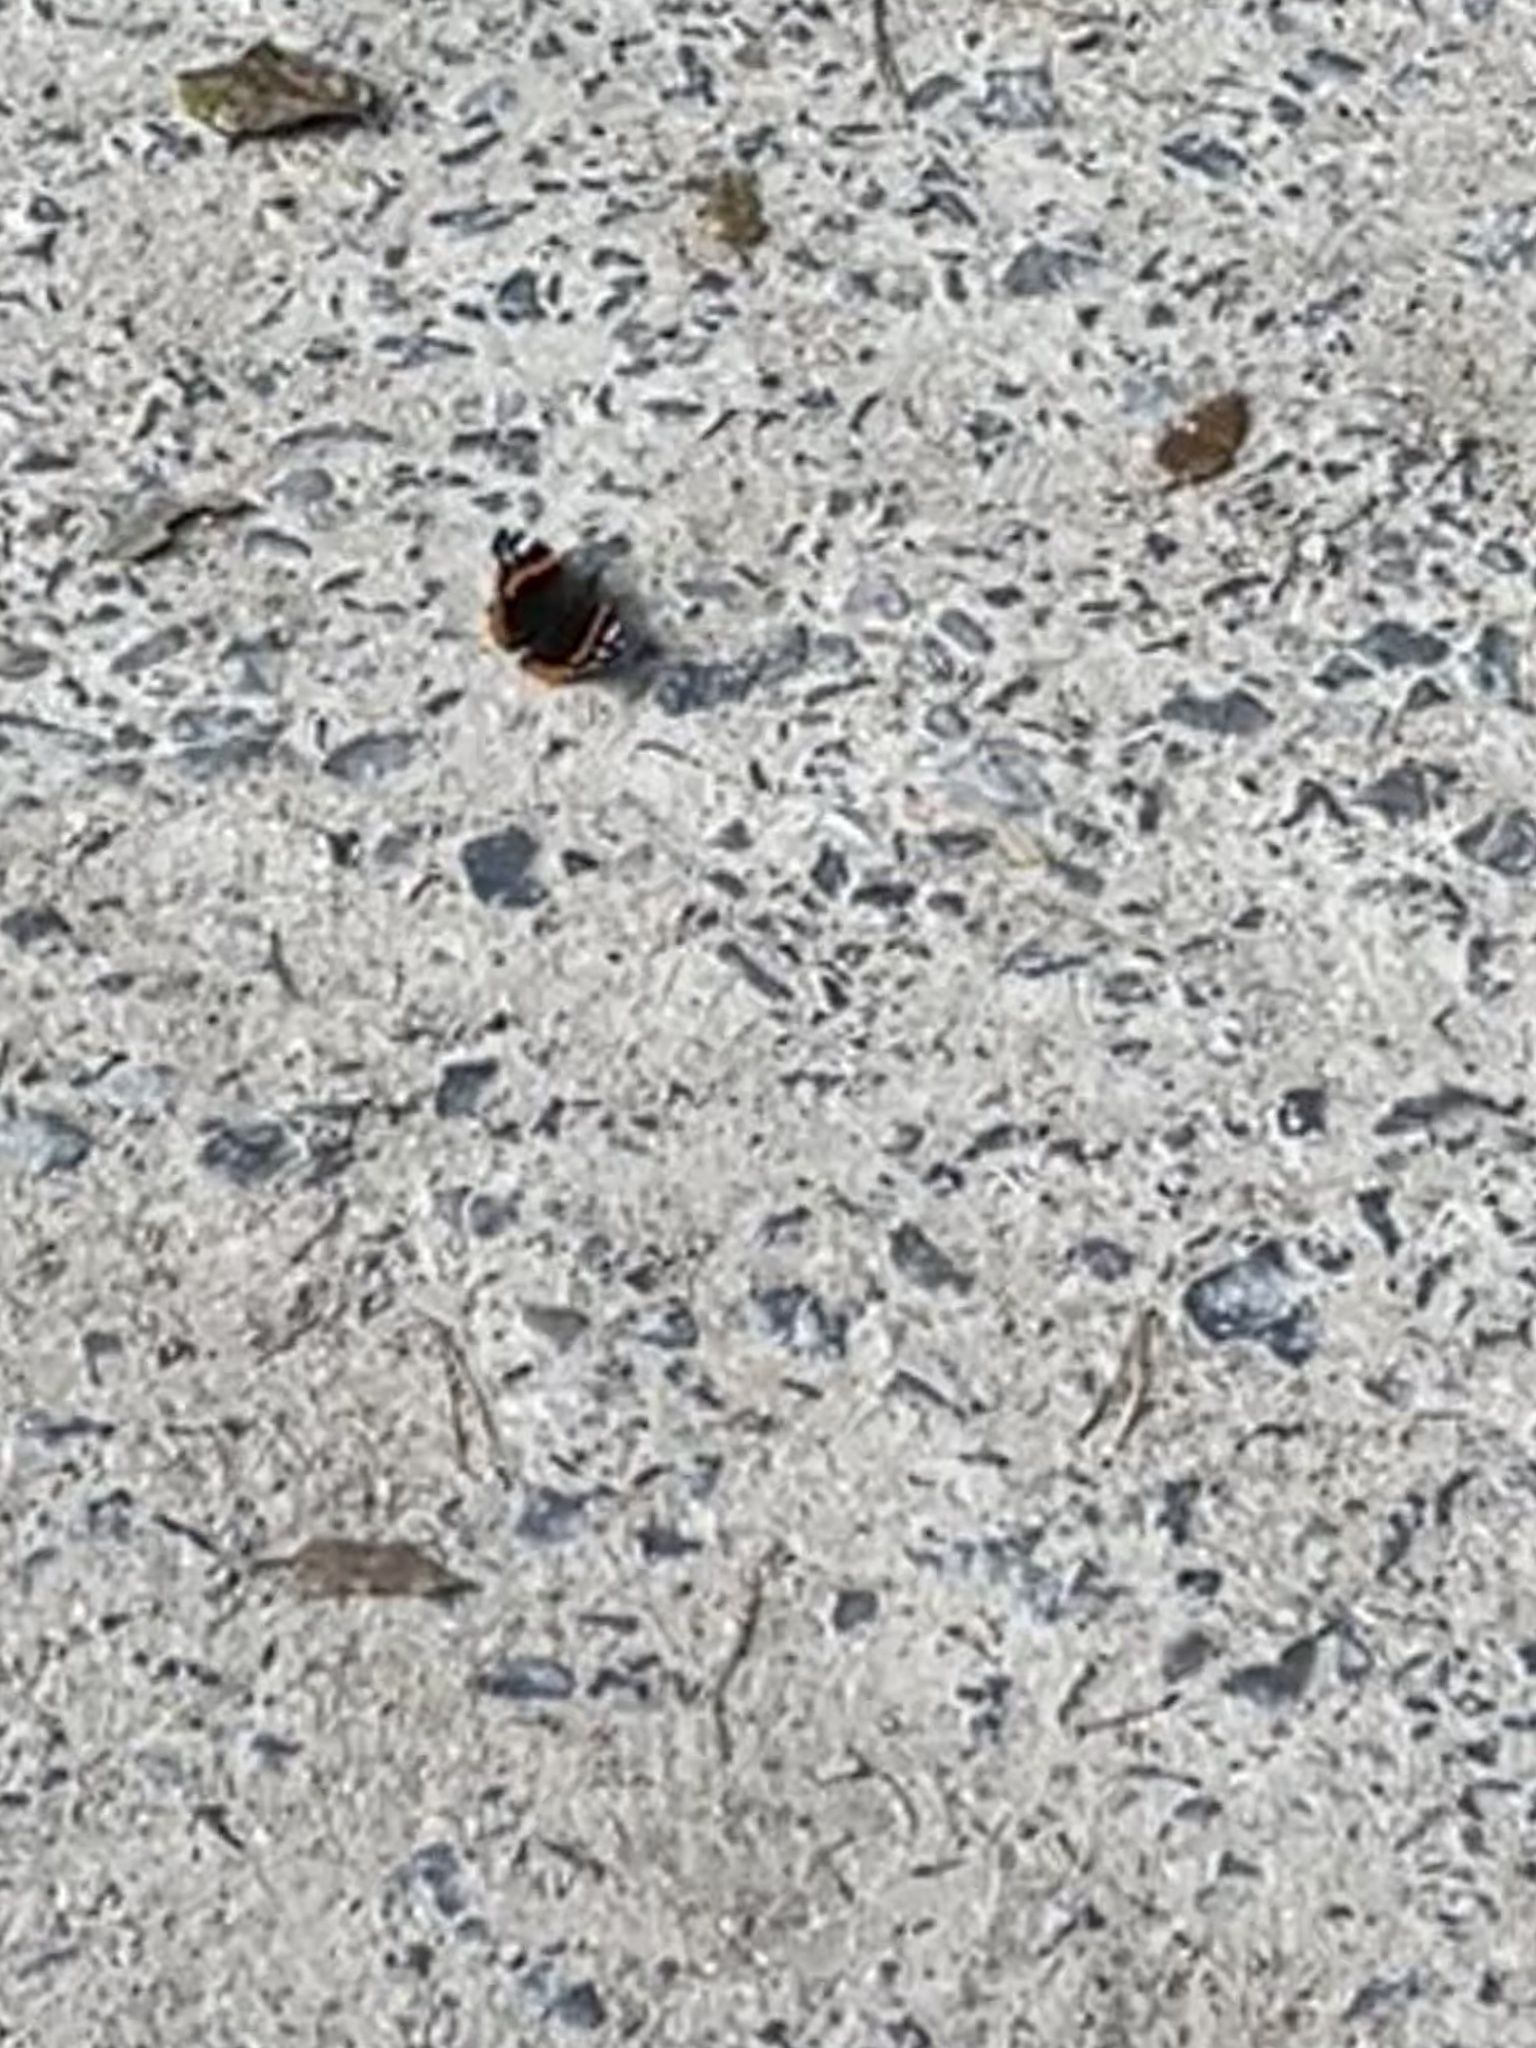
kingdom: Animalia
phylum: Arthropoda
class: Insecta
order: Lepidoptera
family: Nymphalidae
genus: Vanessa
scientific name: Vanessa atalanta
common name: Red admiral
